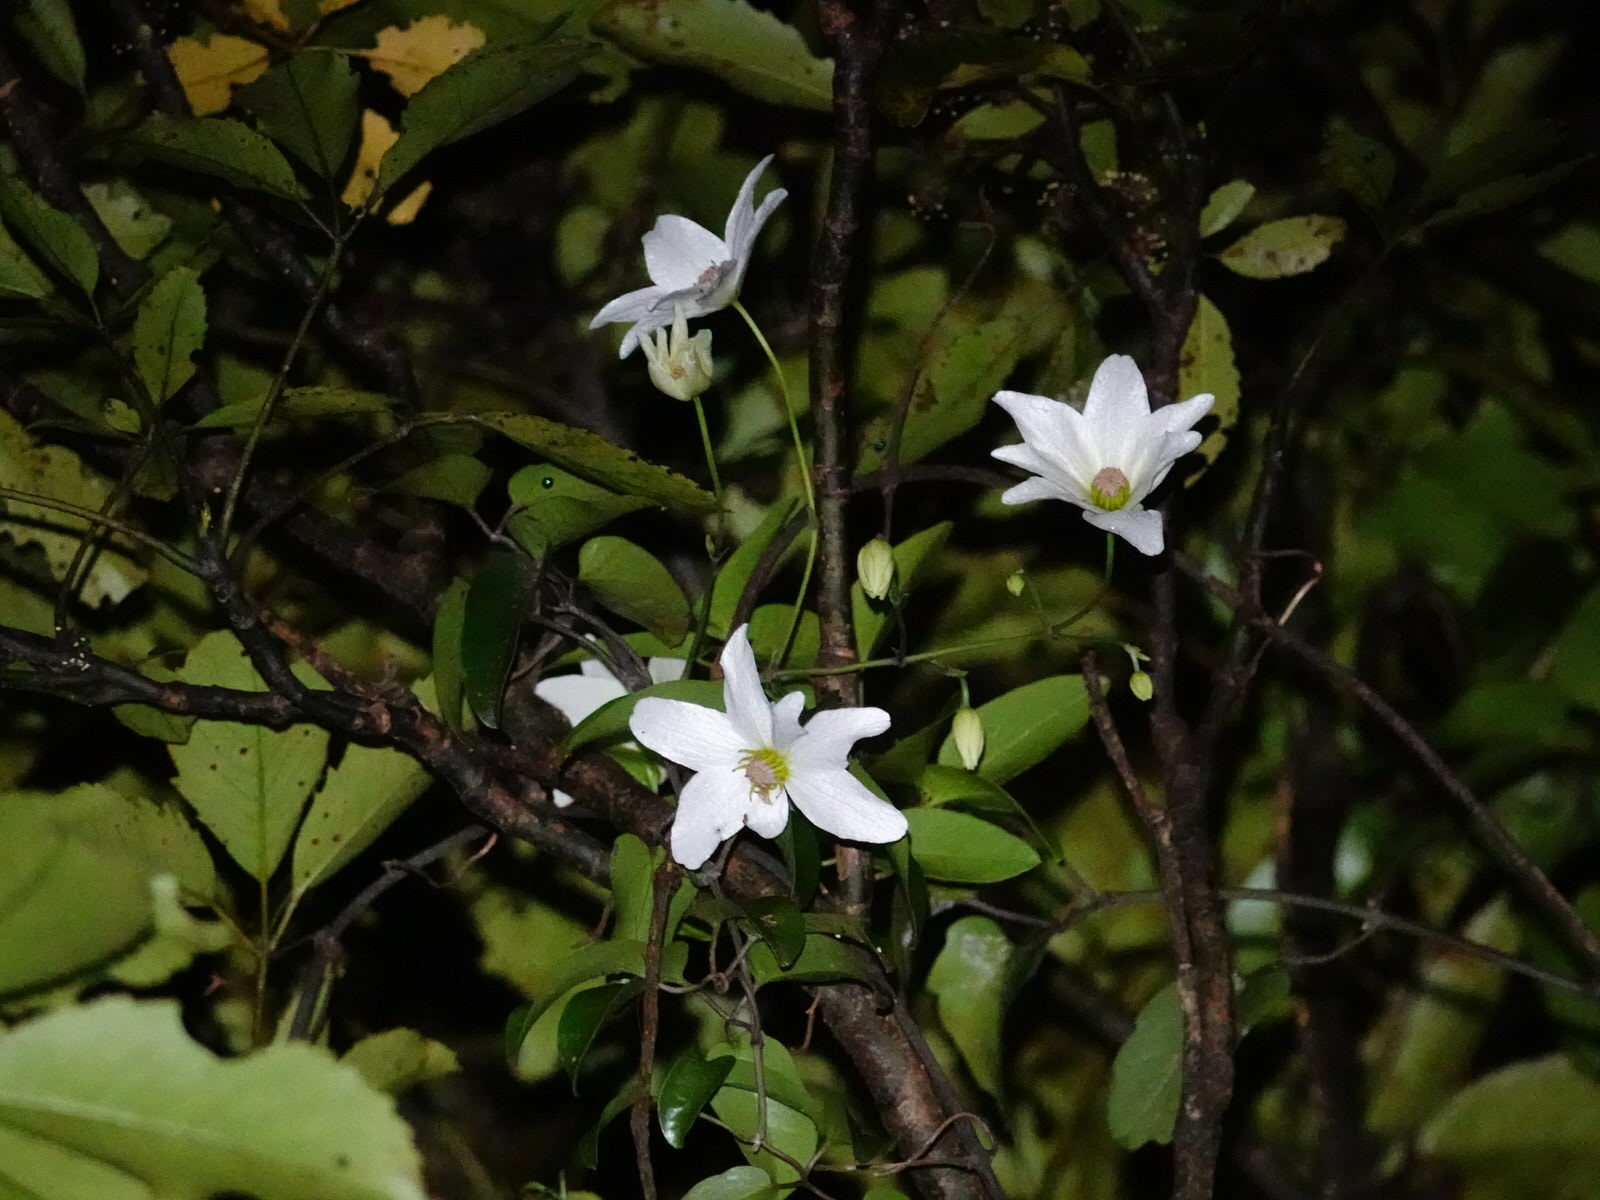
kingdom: Plantae
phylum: Tracheophyta
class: Magnoliopsida
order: Ranunculales
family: Ranunculaceae
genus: Clematis
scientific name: Clematis paniculata
